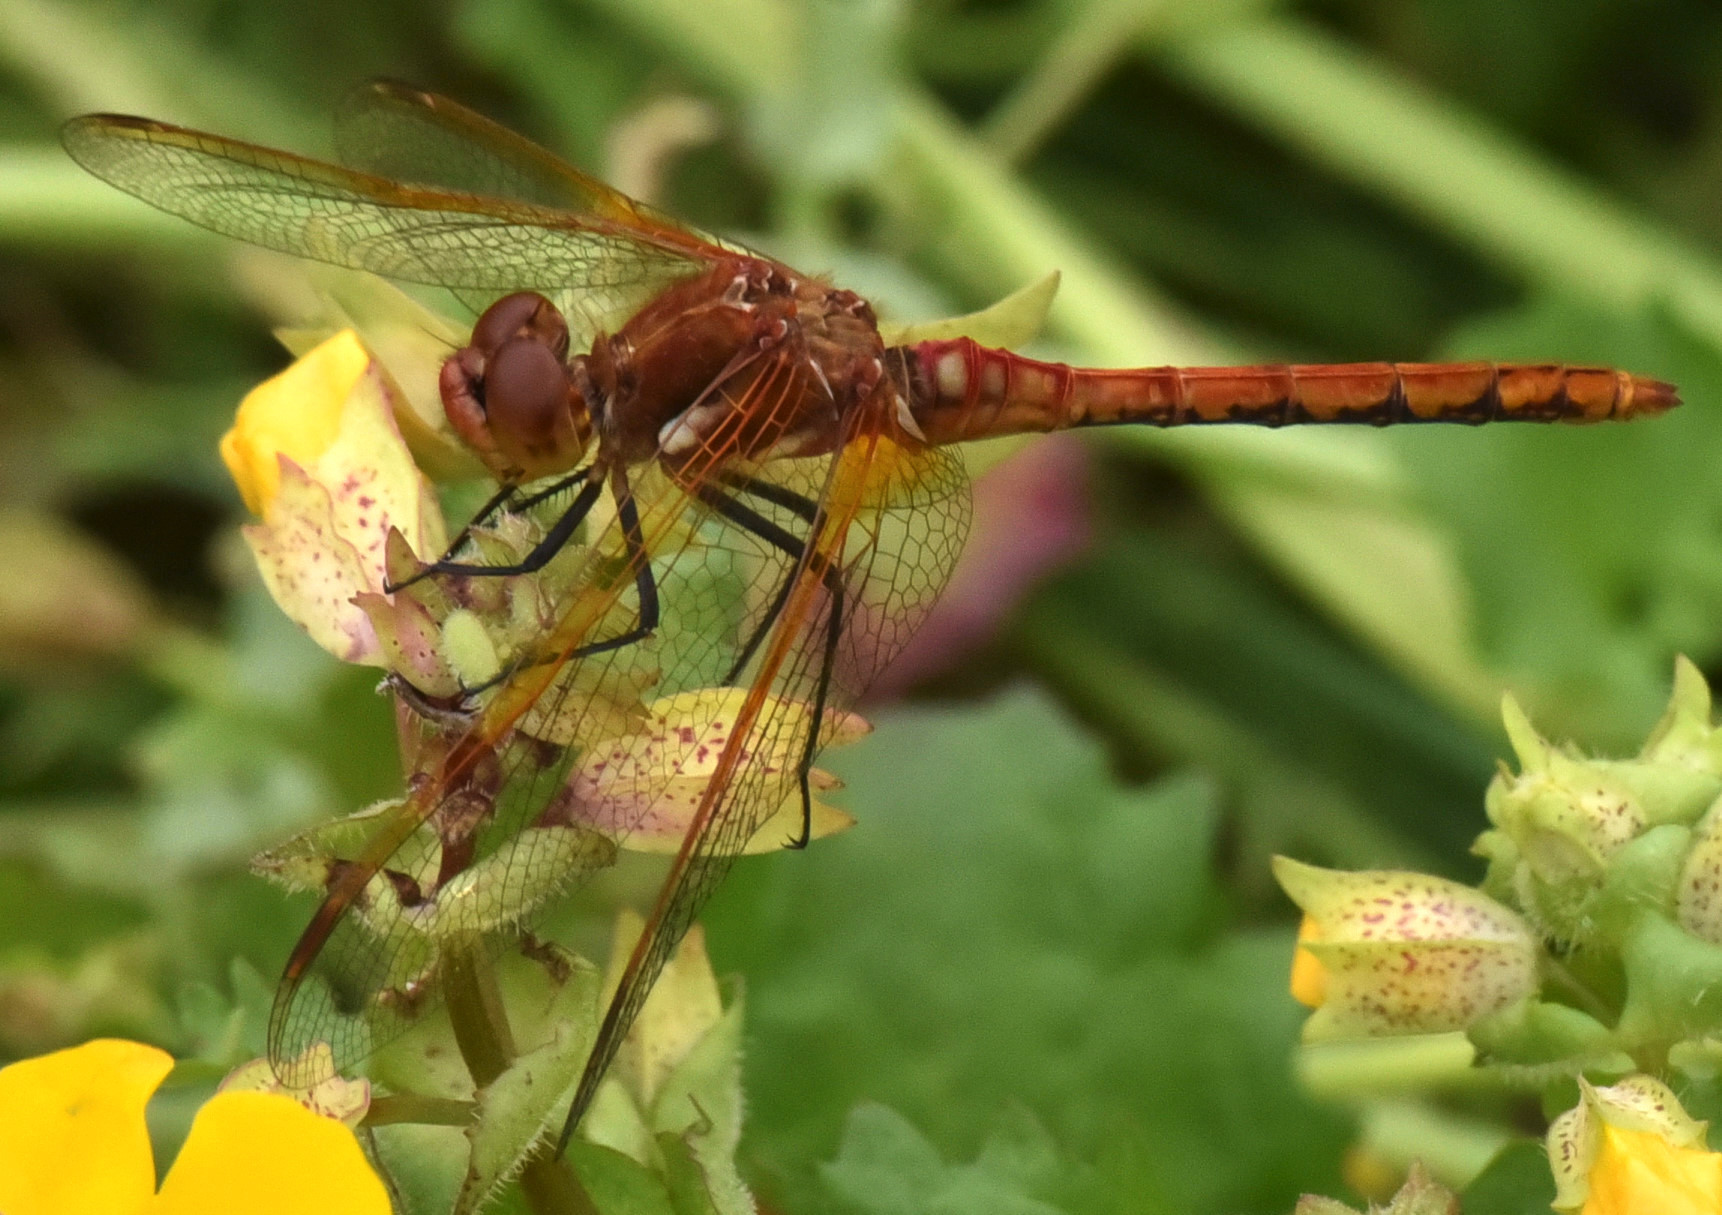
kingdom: Animalia
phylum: Arthropoda
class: Insecta
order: Odonata
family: Libellulidae
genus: Sympetrum
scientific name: Sympetrum madidum
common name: Red-veined meadowhawk
